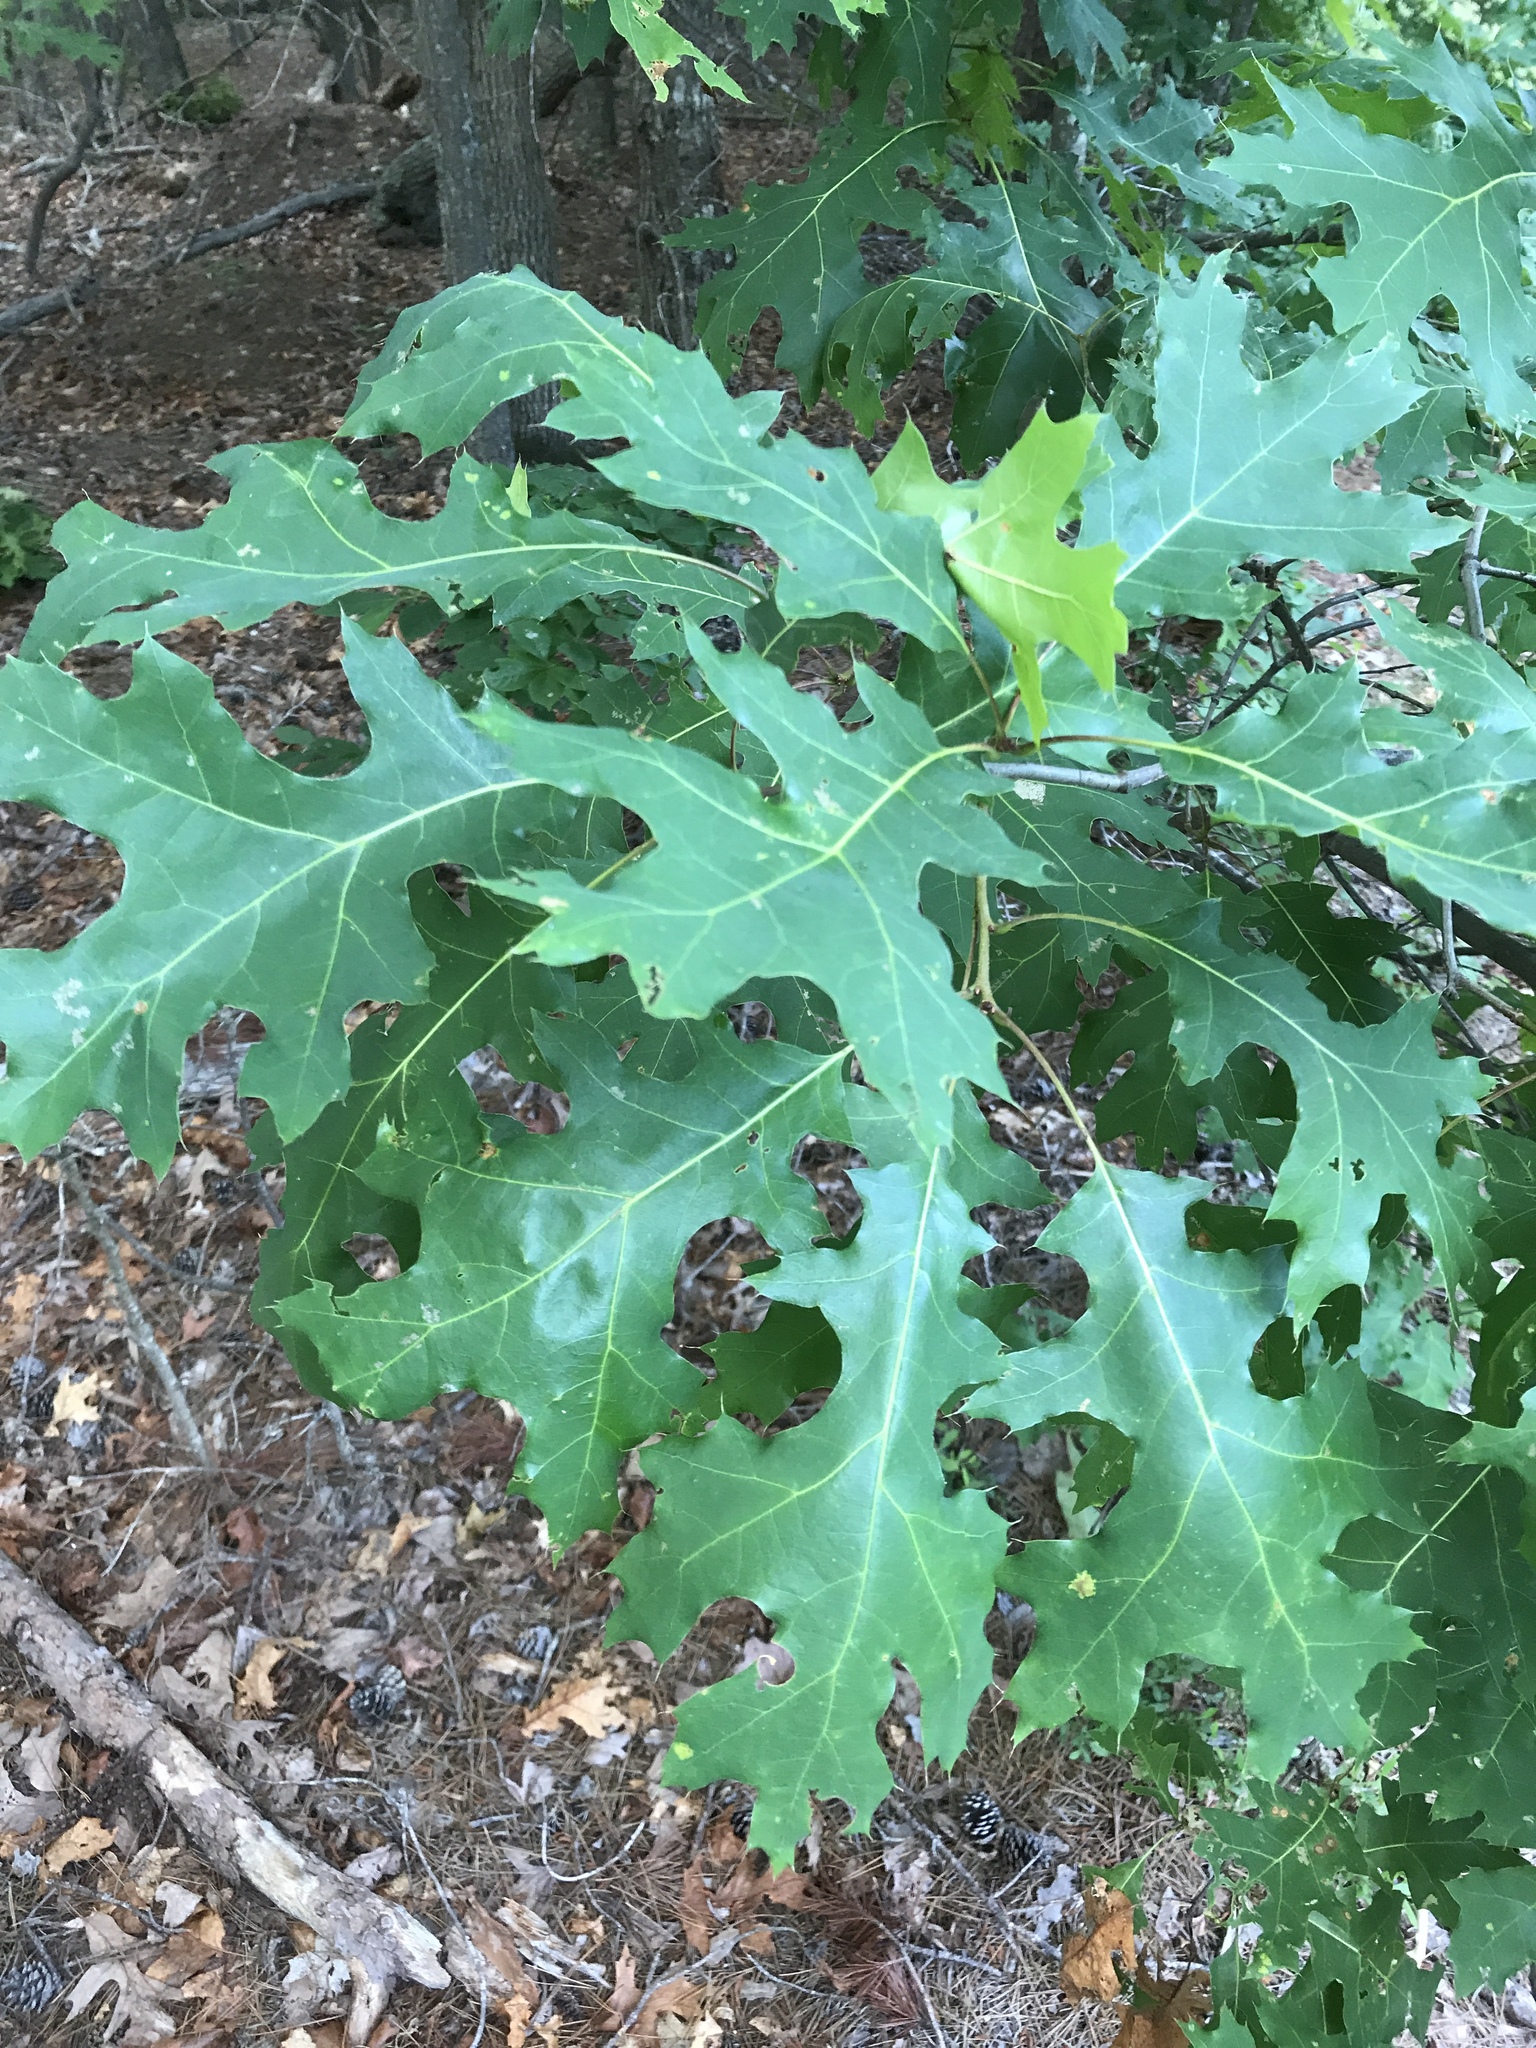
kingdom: Plantae
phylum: Tracheophyta
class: Magnoliopsida
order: Fagales
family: Fagaceae
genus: Quercus
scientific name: Quercus coccinea
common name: Scarlet oak
